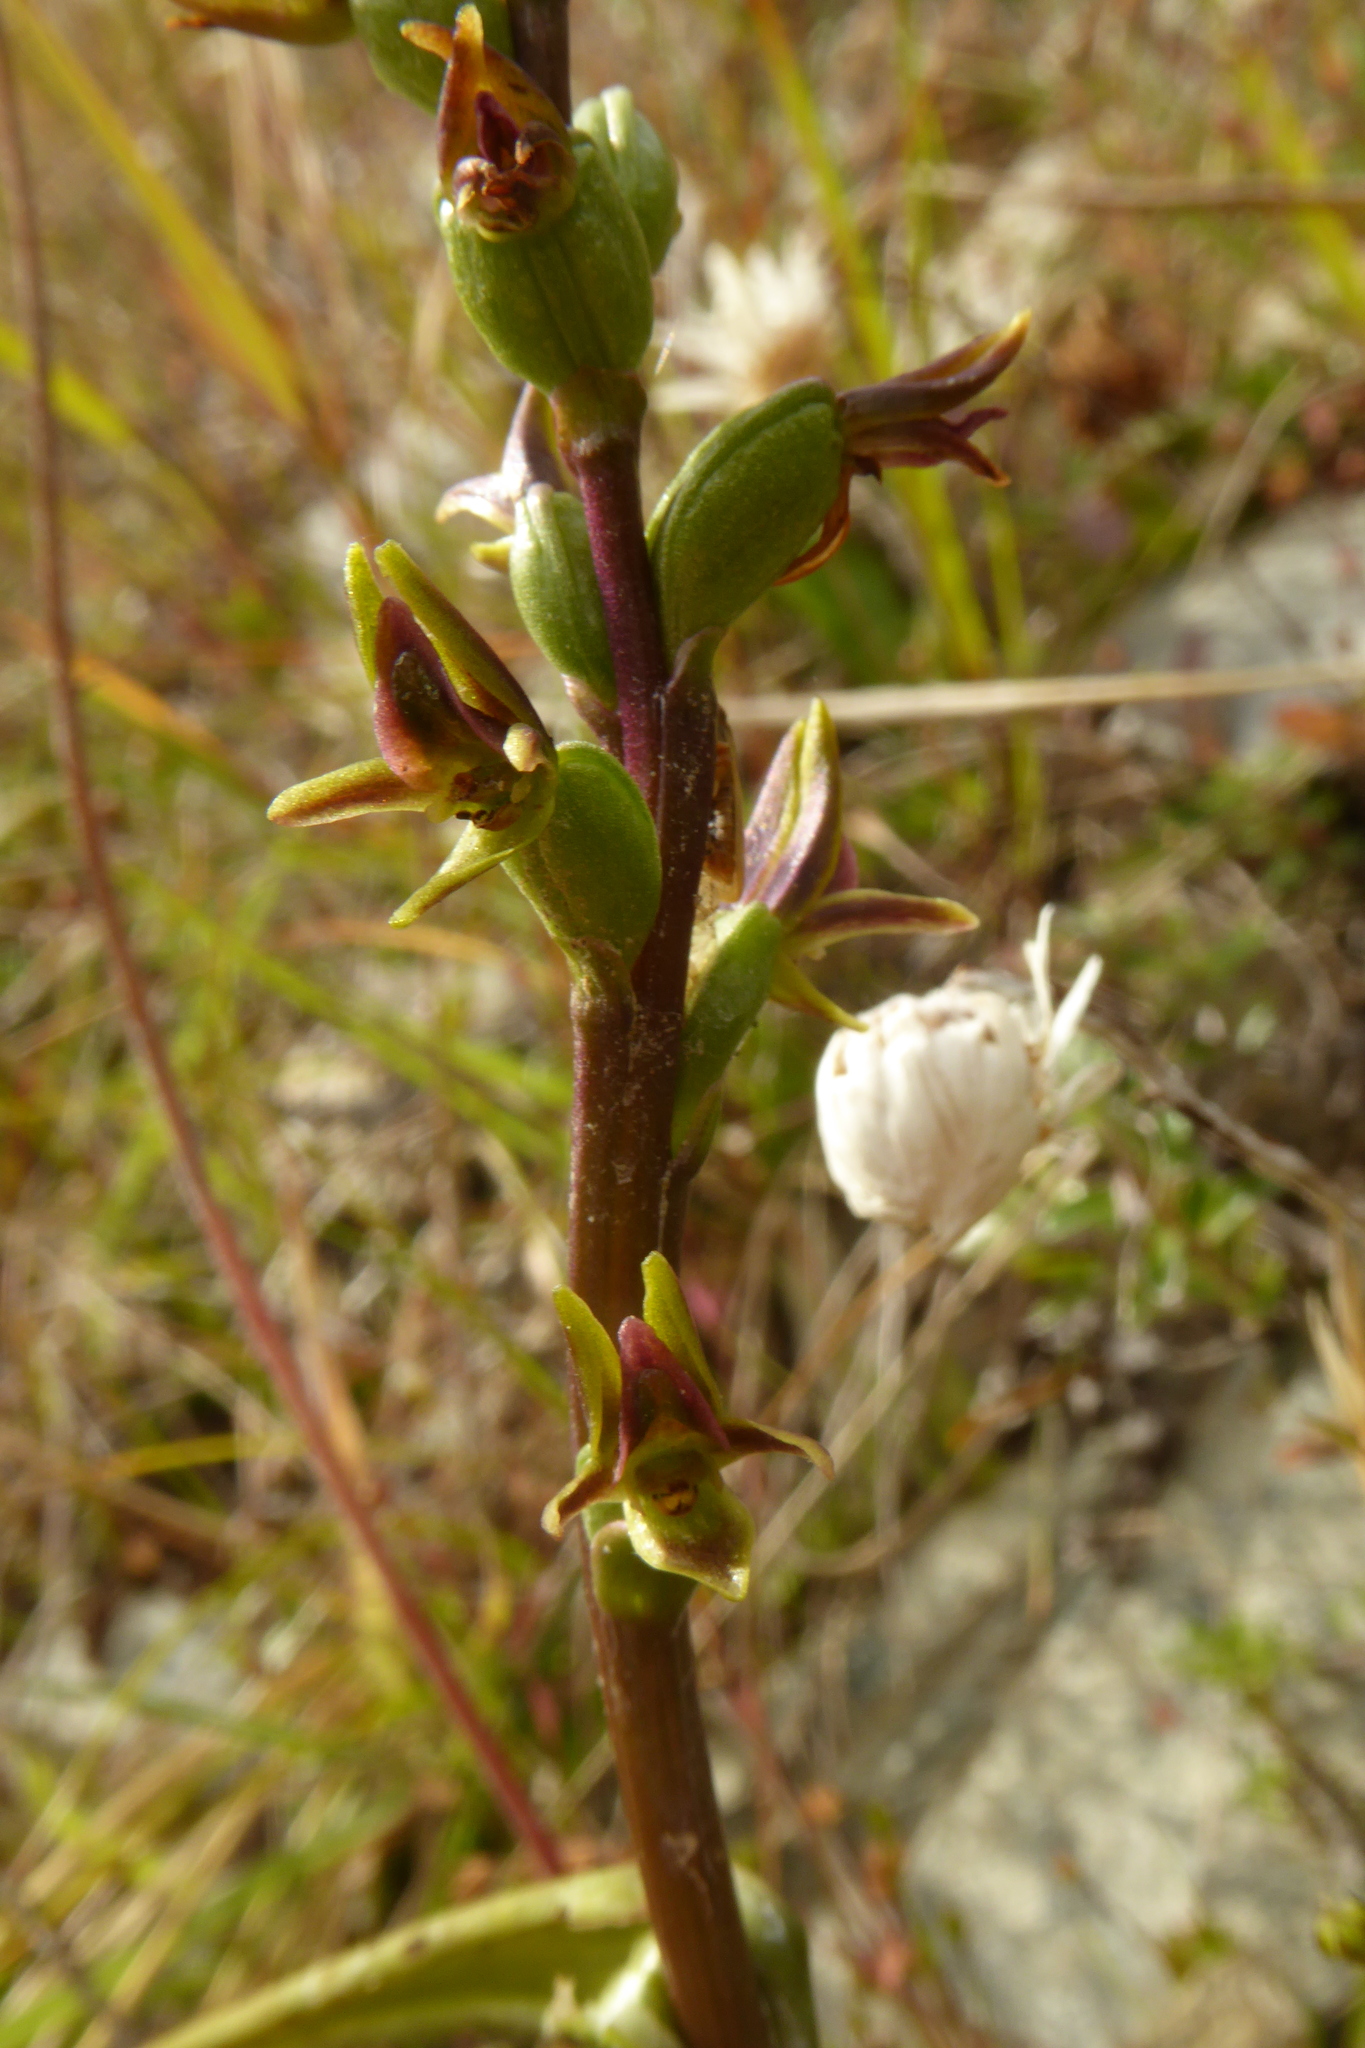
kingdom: Plantae
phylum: Tracheophyta
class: Liliopsida
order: Asparagales
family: Orchidaceae
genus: Prasophyllum
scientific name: Prasophyllum colensoi
